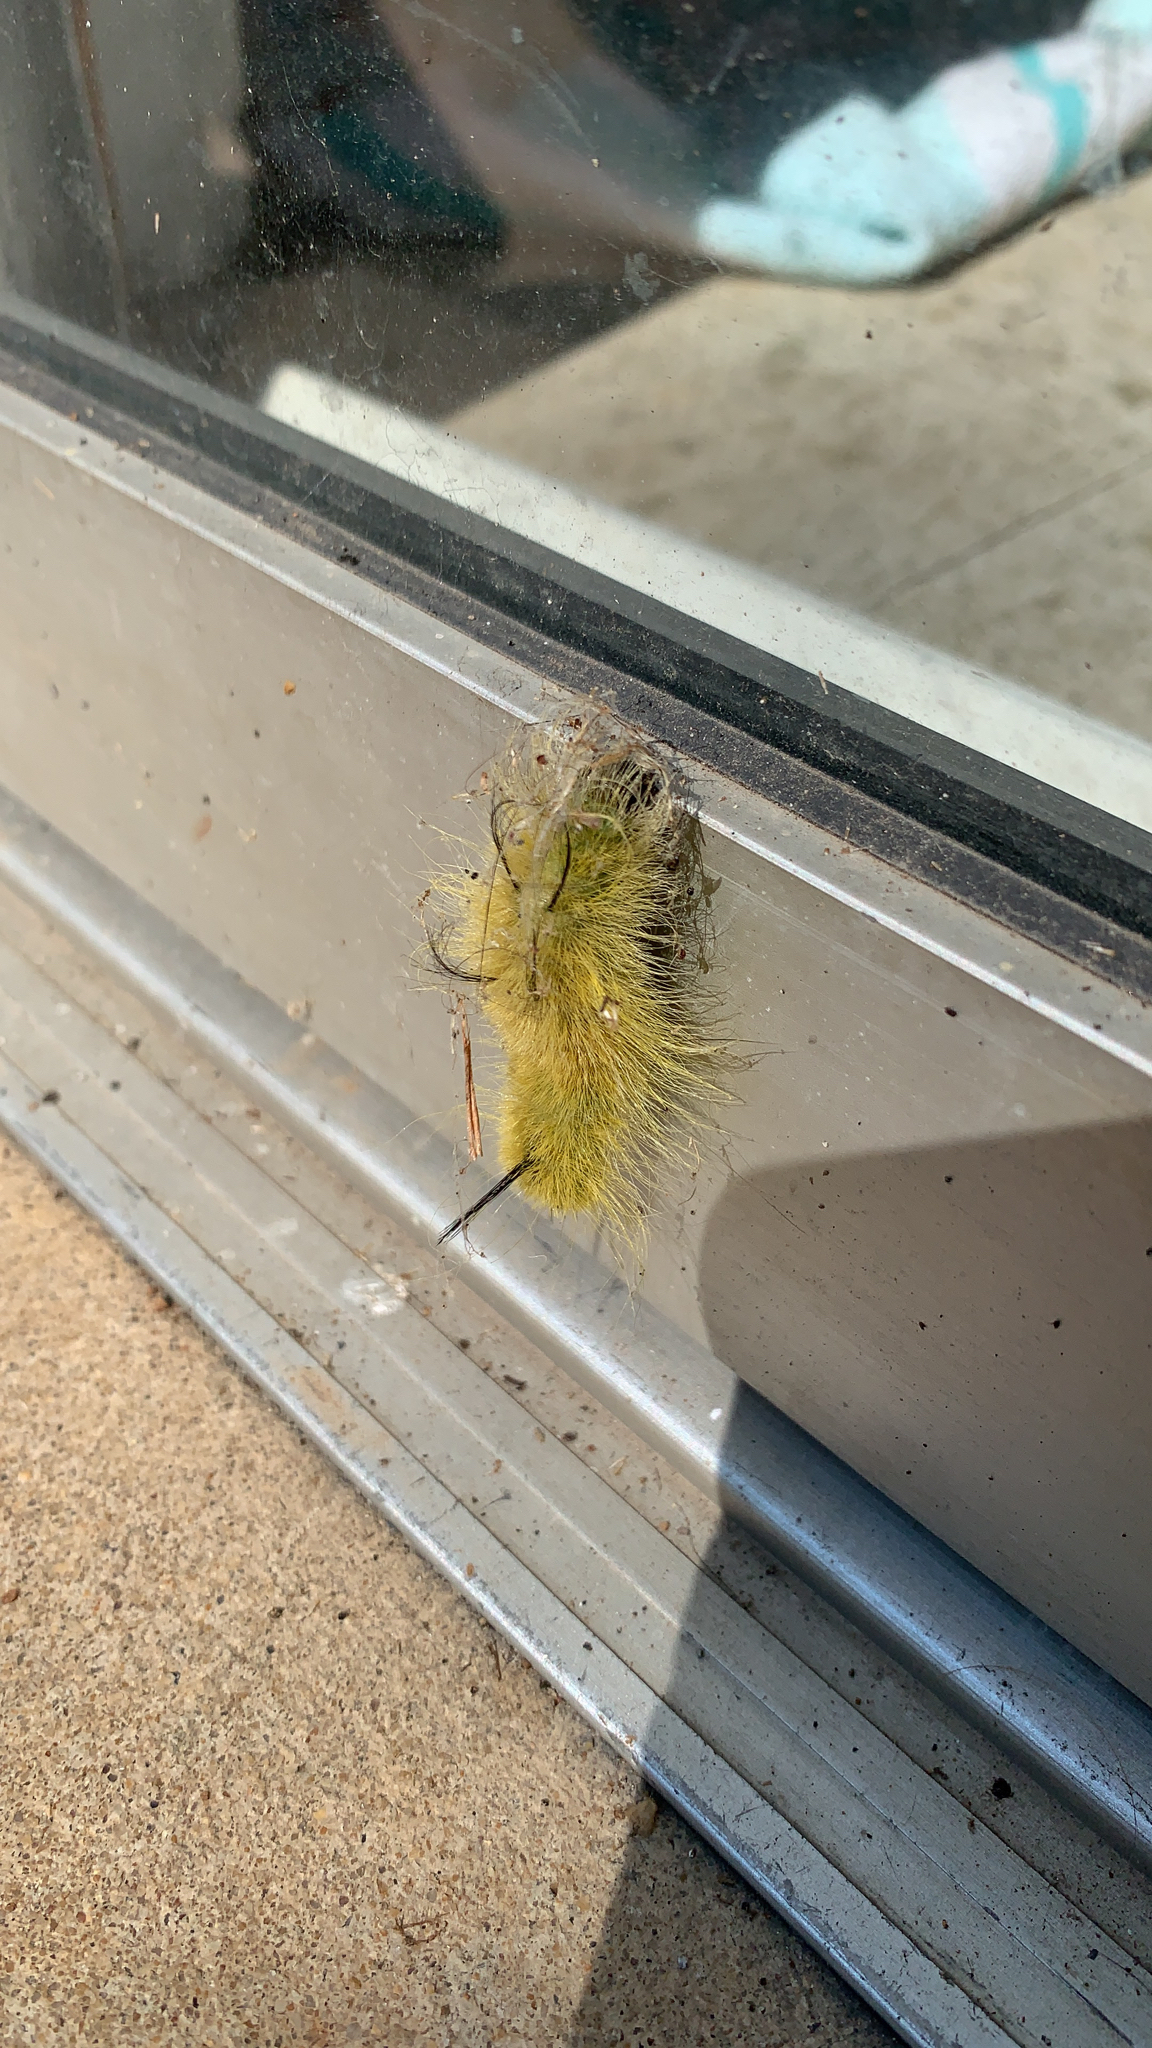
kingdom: Animalia
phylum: Arthropoda
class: Insecta
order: Lepidoptera
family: Noctuidae
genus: Acronicta
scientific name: Acronicta americana
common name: American dagger
